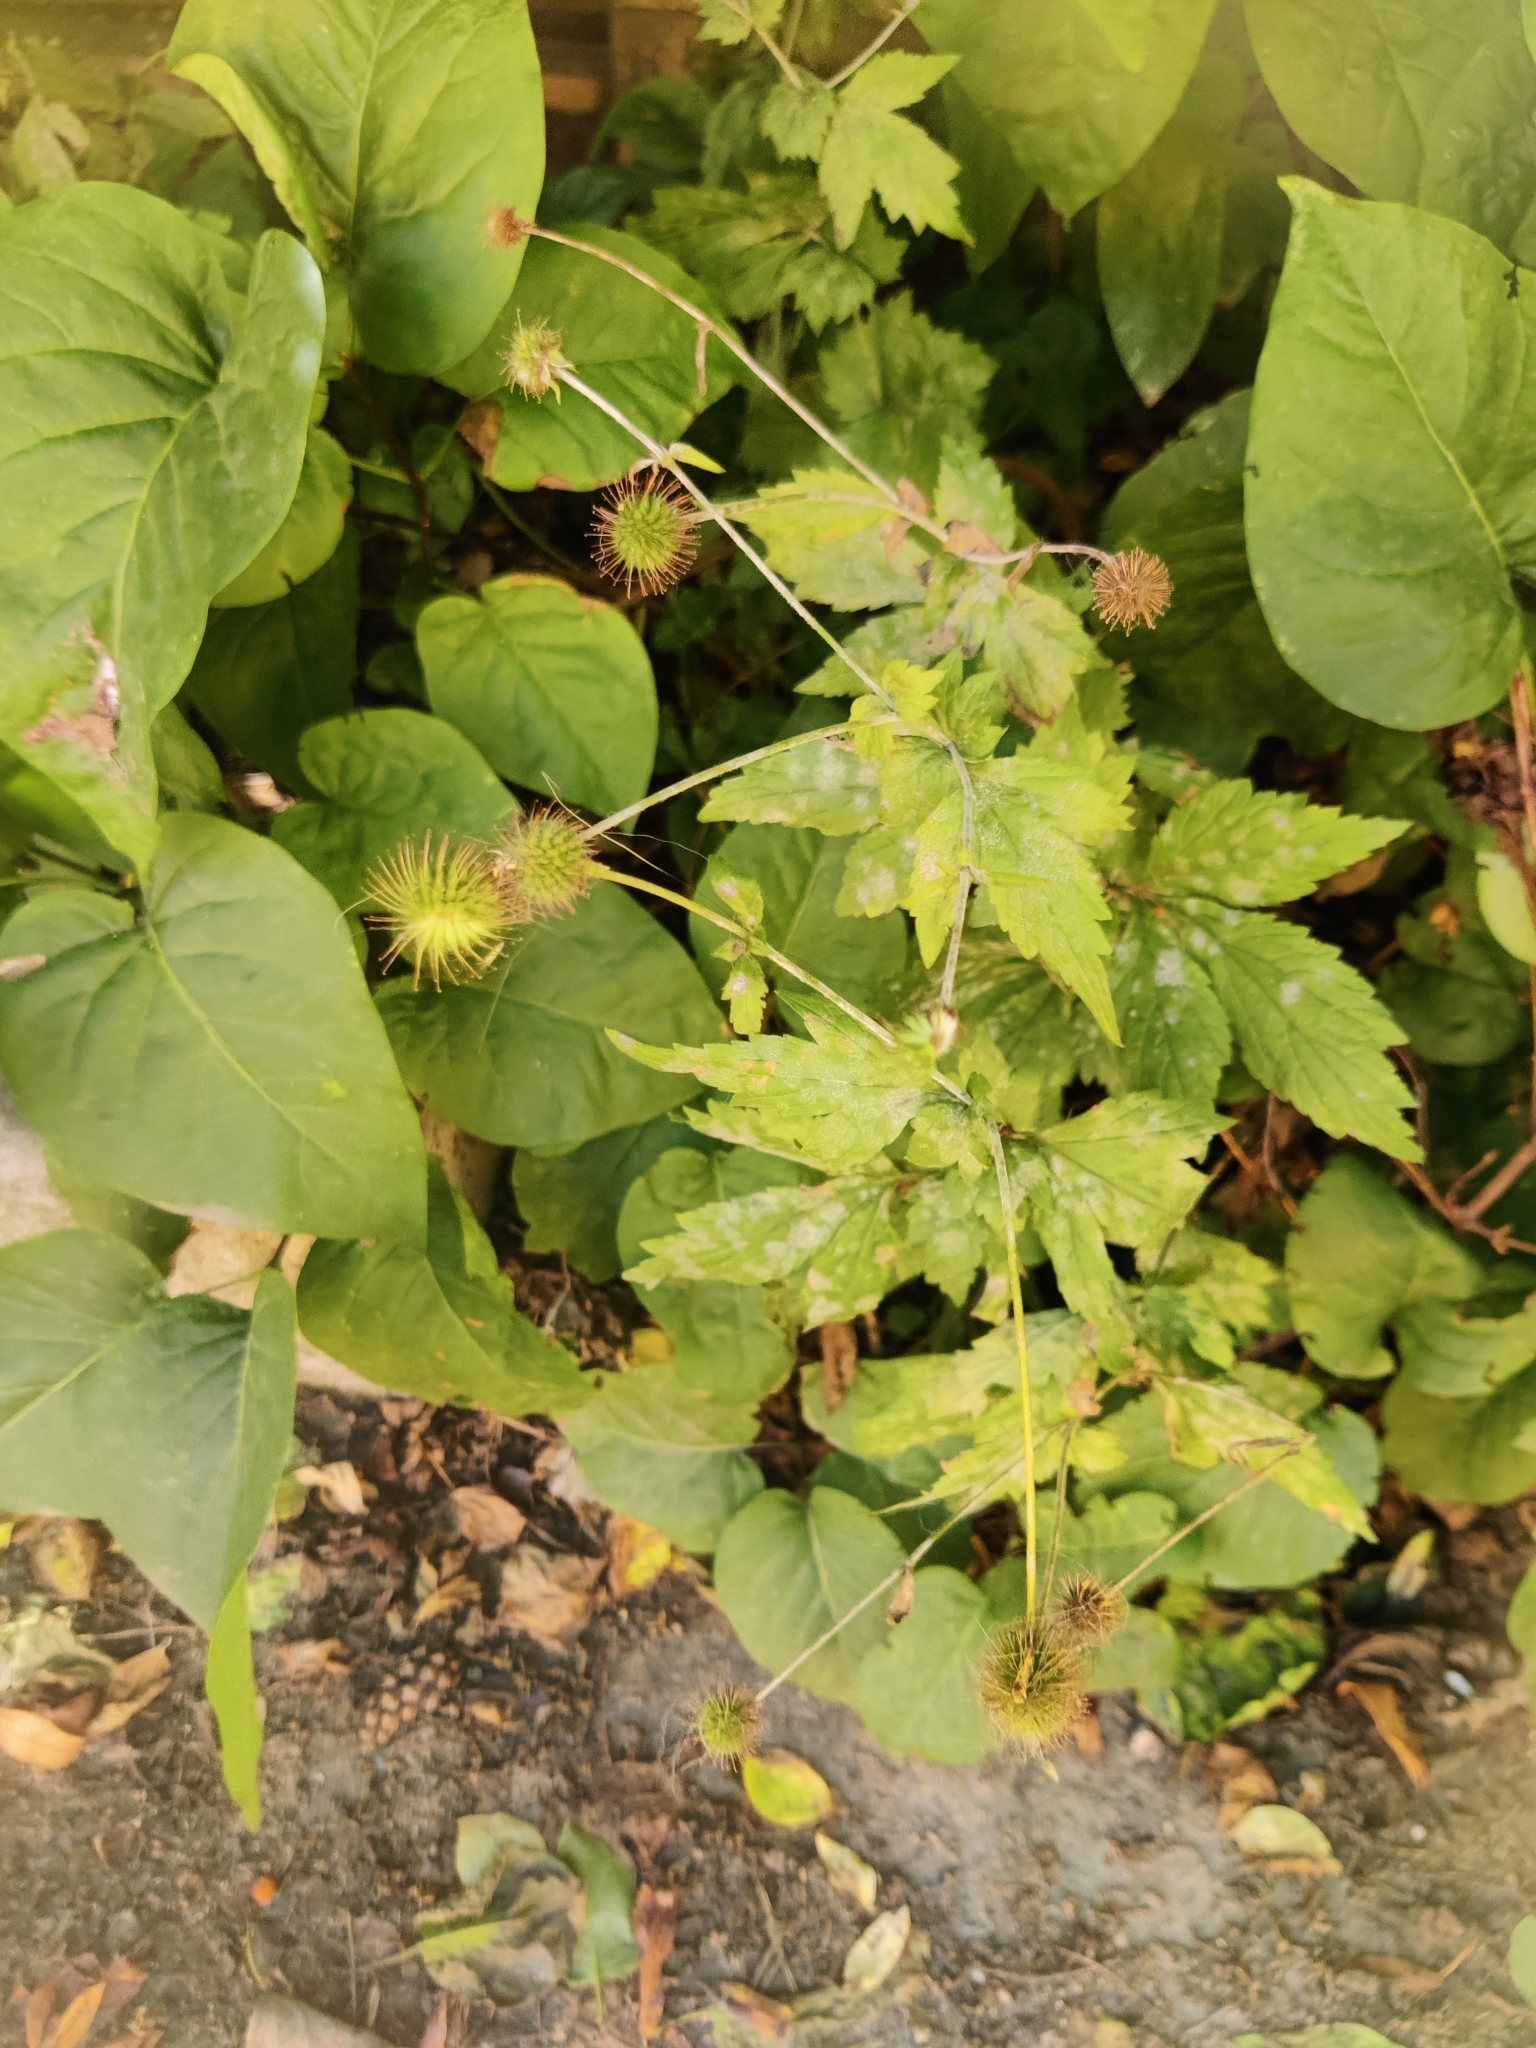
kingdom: Plantae
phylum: Tracheophyta
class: Magnoliopsida
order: Rosales
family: Rosaceae
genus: Geum
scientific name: Geum urbanum
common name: Wood avens
